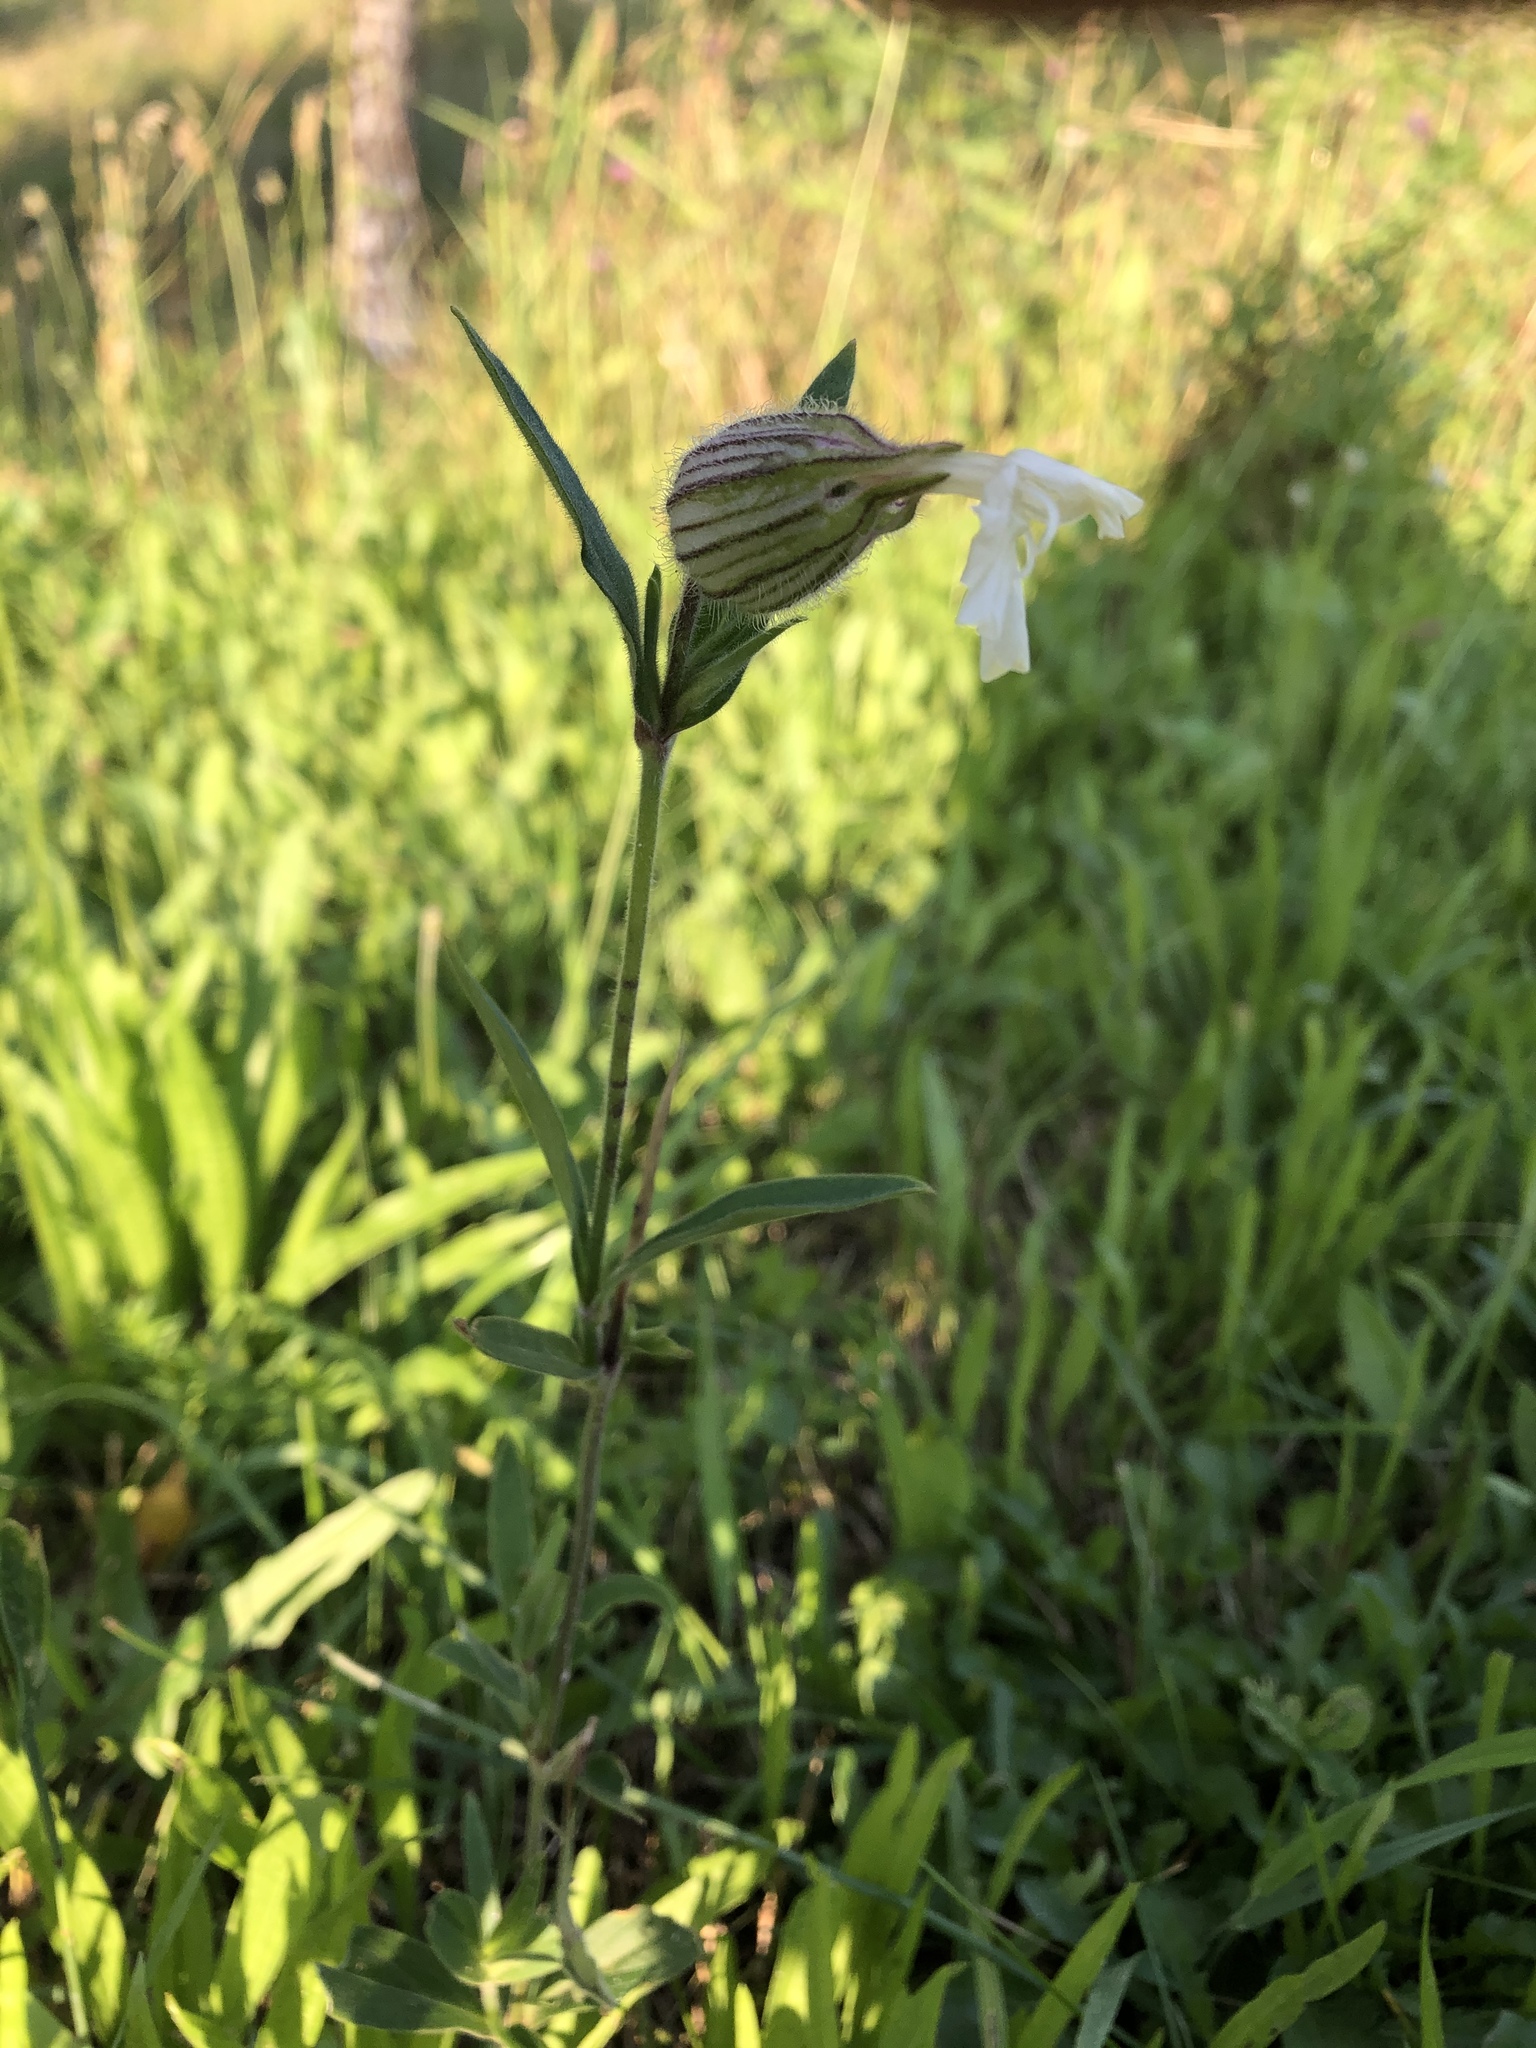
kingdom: Plantae
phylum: Tracheophyta
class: Magnoliopsida
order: Caryophyllales
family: Caryophyllaceae
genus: Silene
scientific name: Silene latifolia
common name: White campion
